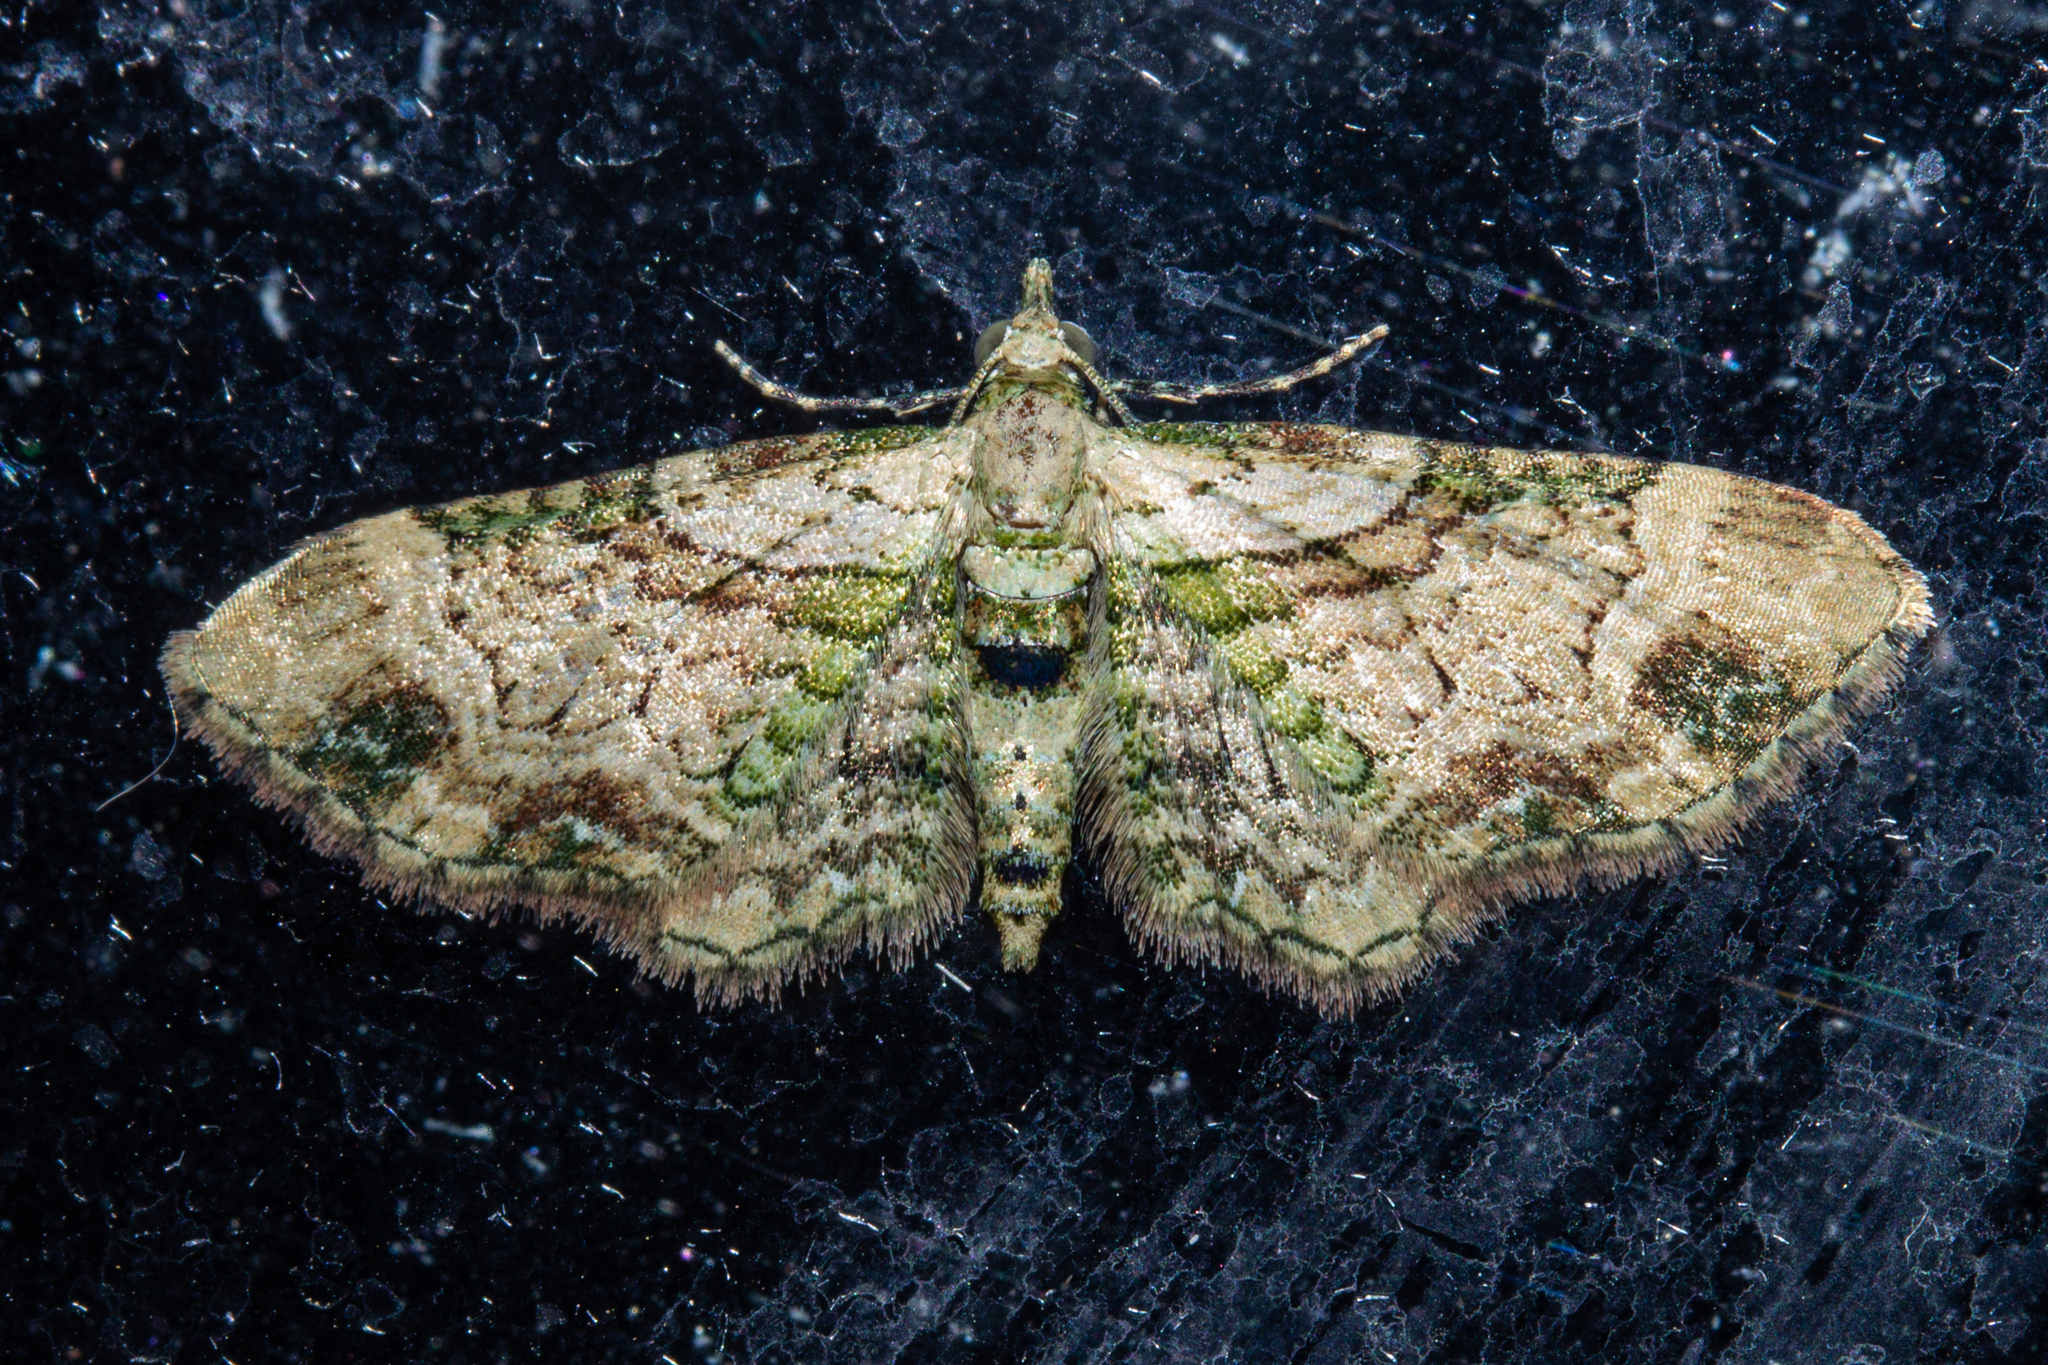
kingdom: Animalia
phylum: Arthropoda
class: Insecta
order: Lepidoptera
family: Geometridae
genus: Chloroclystis
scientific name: Chloroclystis
